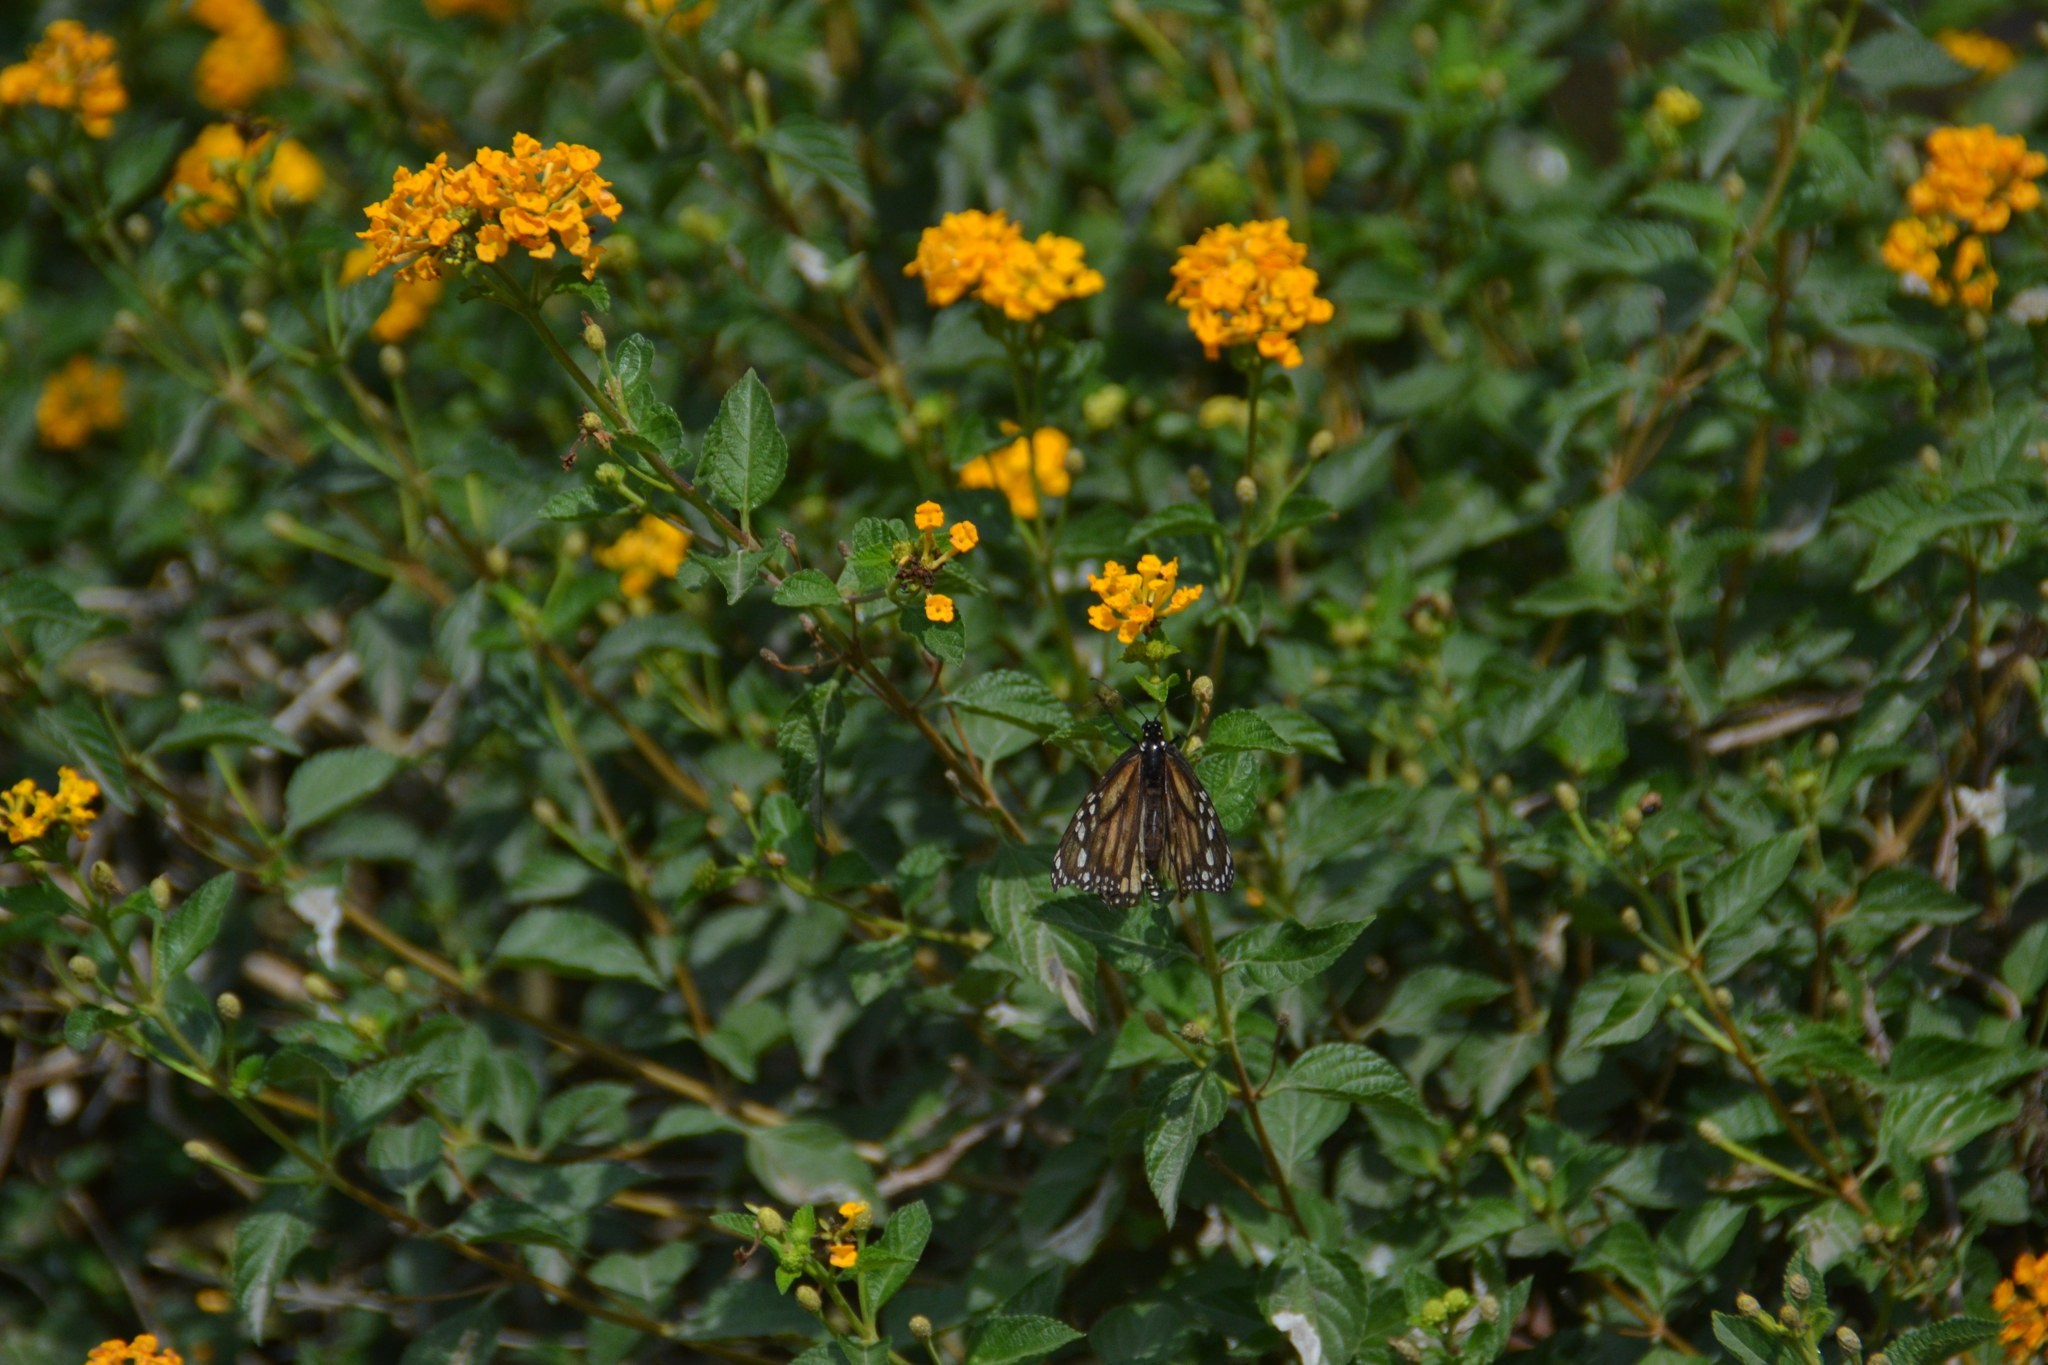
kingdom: Animalia
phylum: Arthropoda
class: Insecta
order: Lepidoptera
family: Nymphalidae
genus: Danaus
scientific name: Danaus plexippus
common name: Monarch
